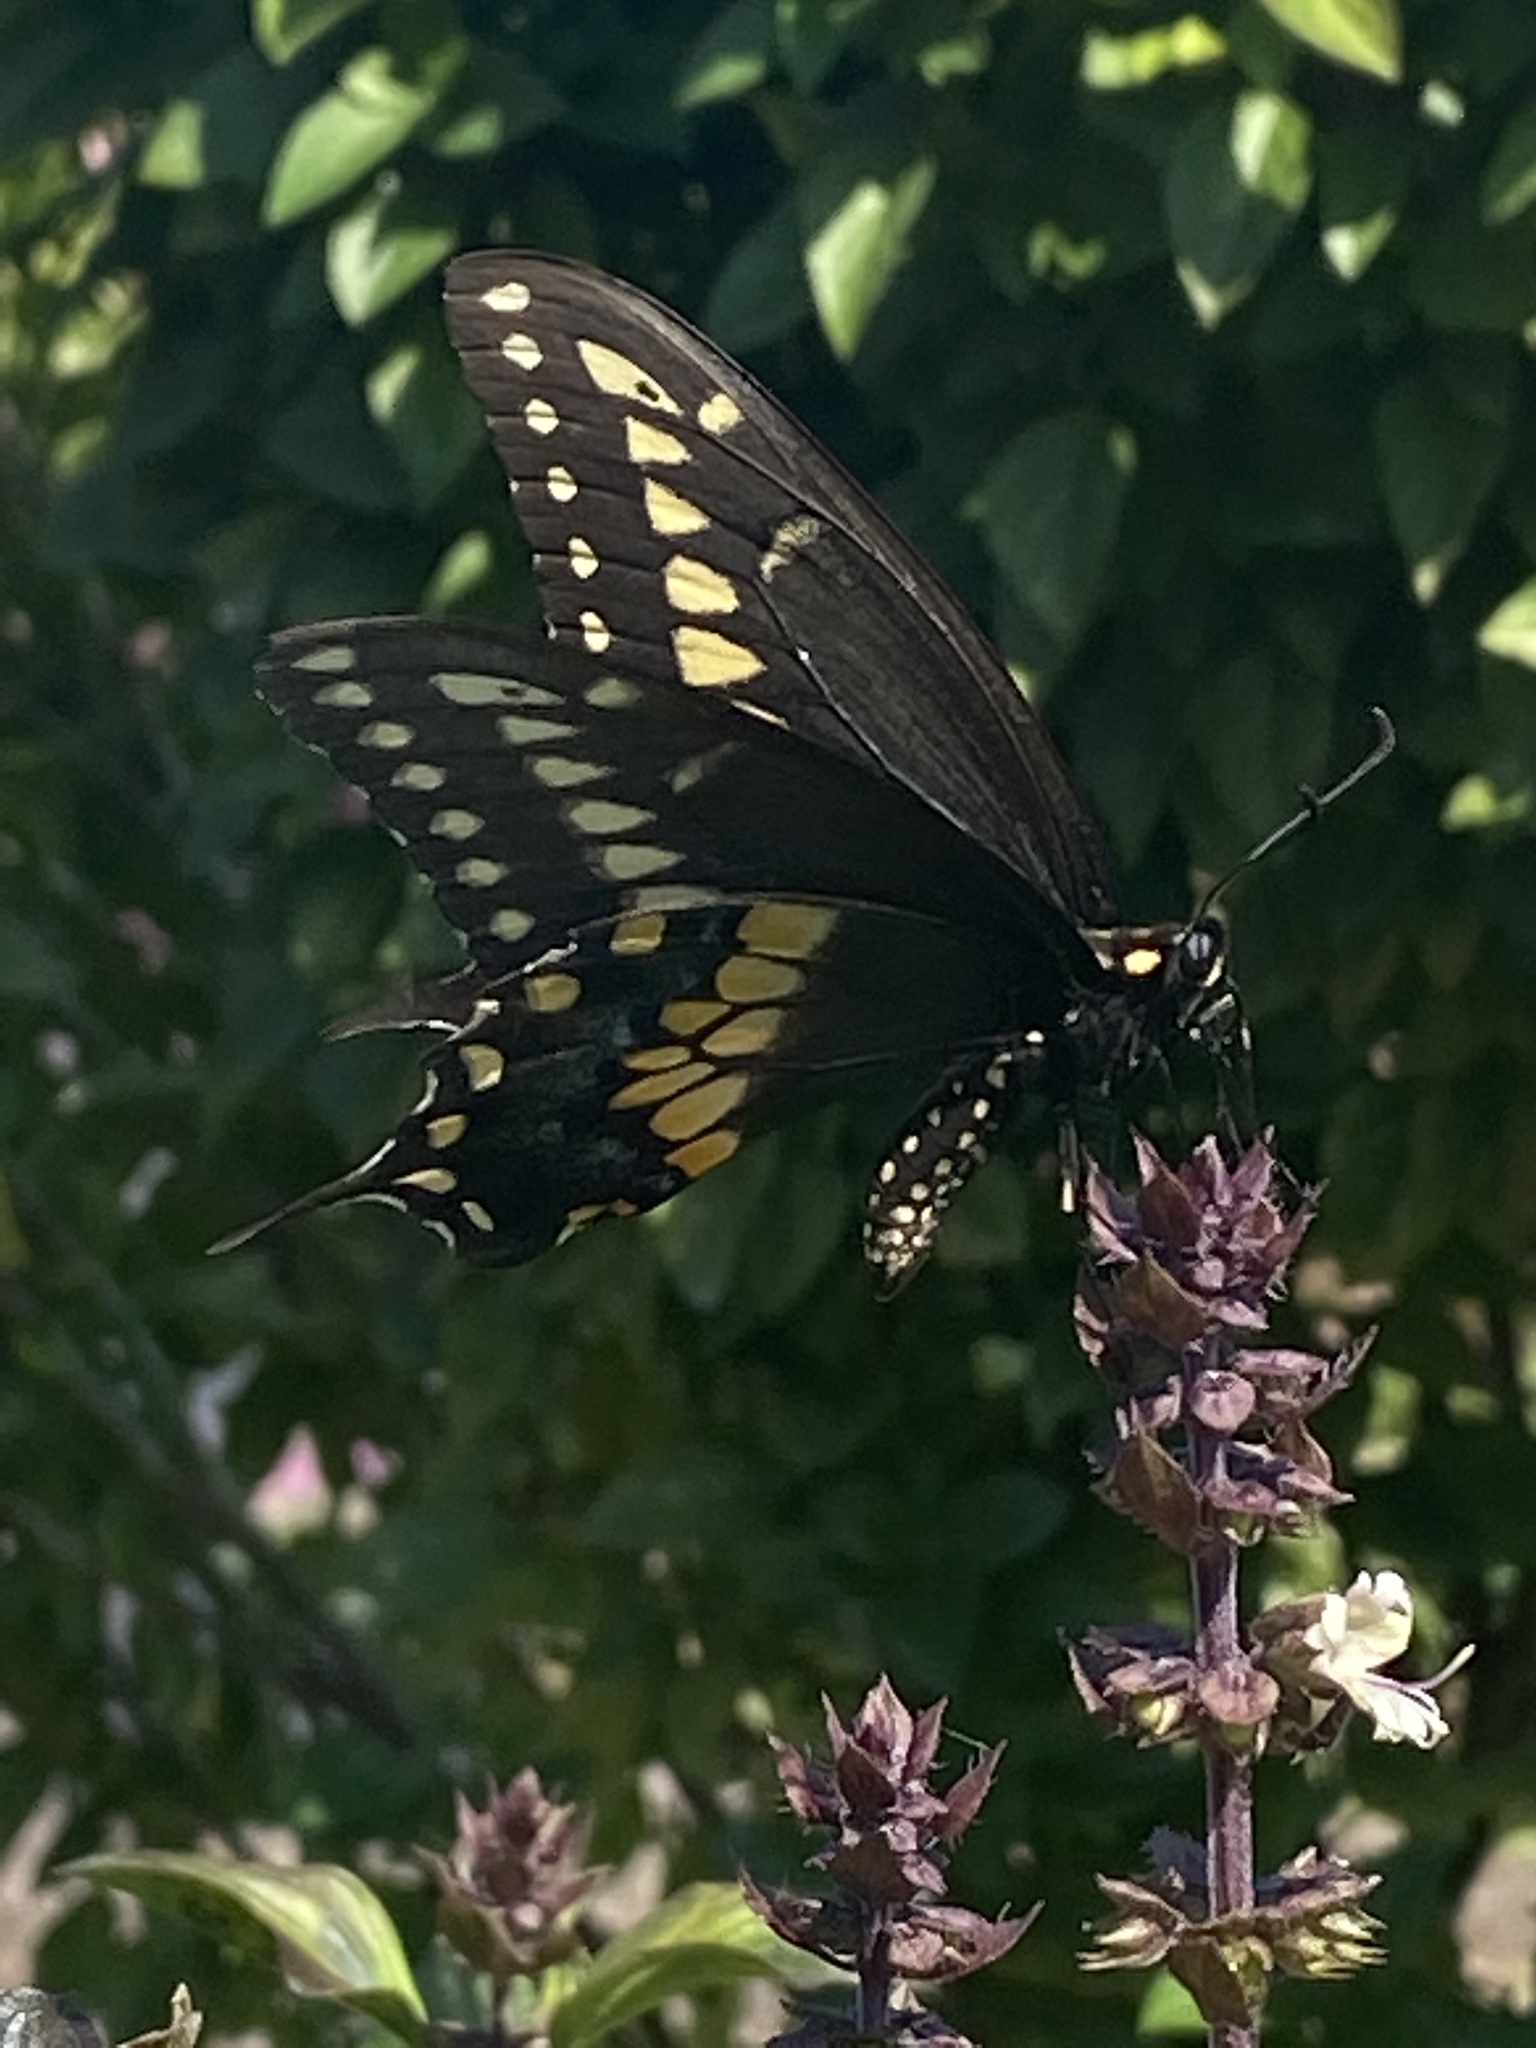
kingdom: Animalia
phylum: Arthropoda
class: Insecta
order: Lepidoptera
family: Papilionidae
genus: Papilio
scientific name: Papilio polyxenes
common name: Black swallowtail
